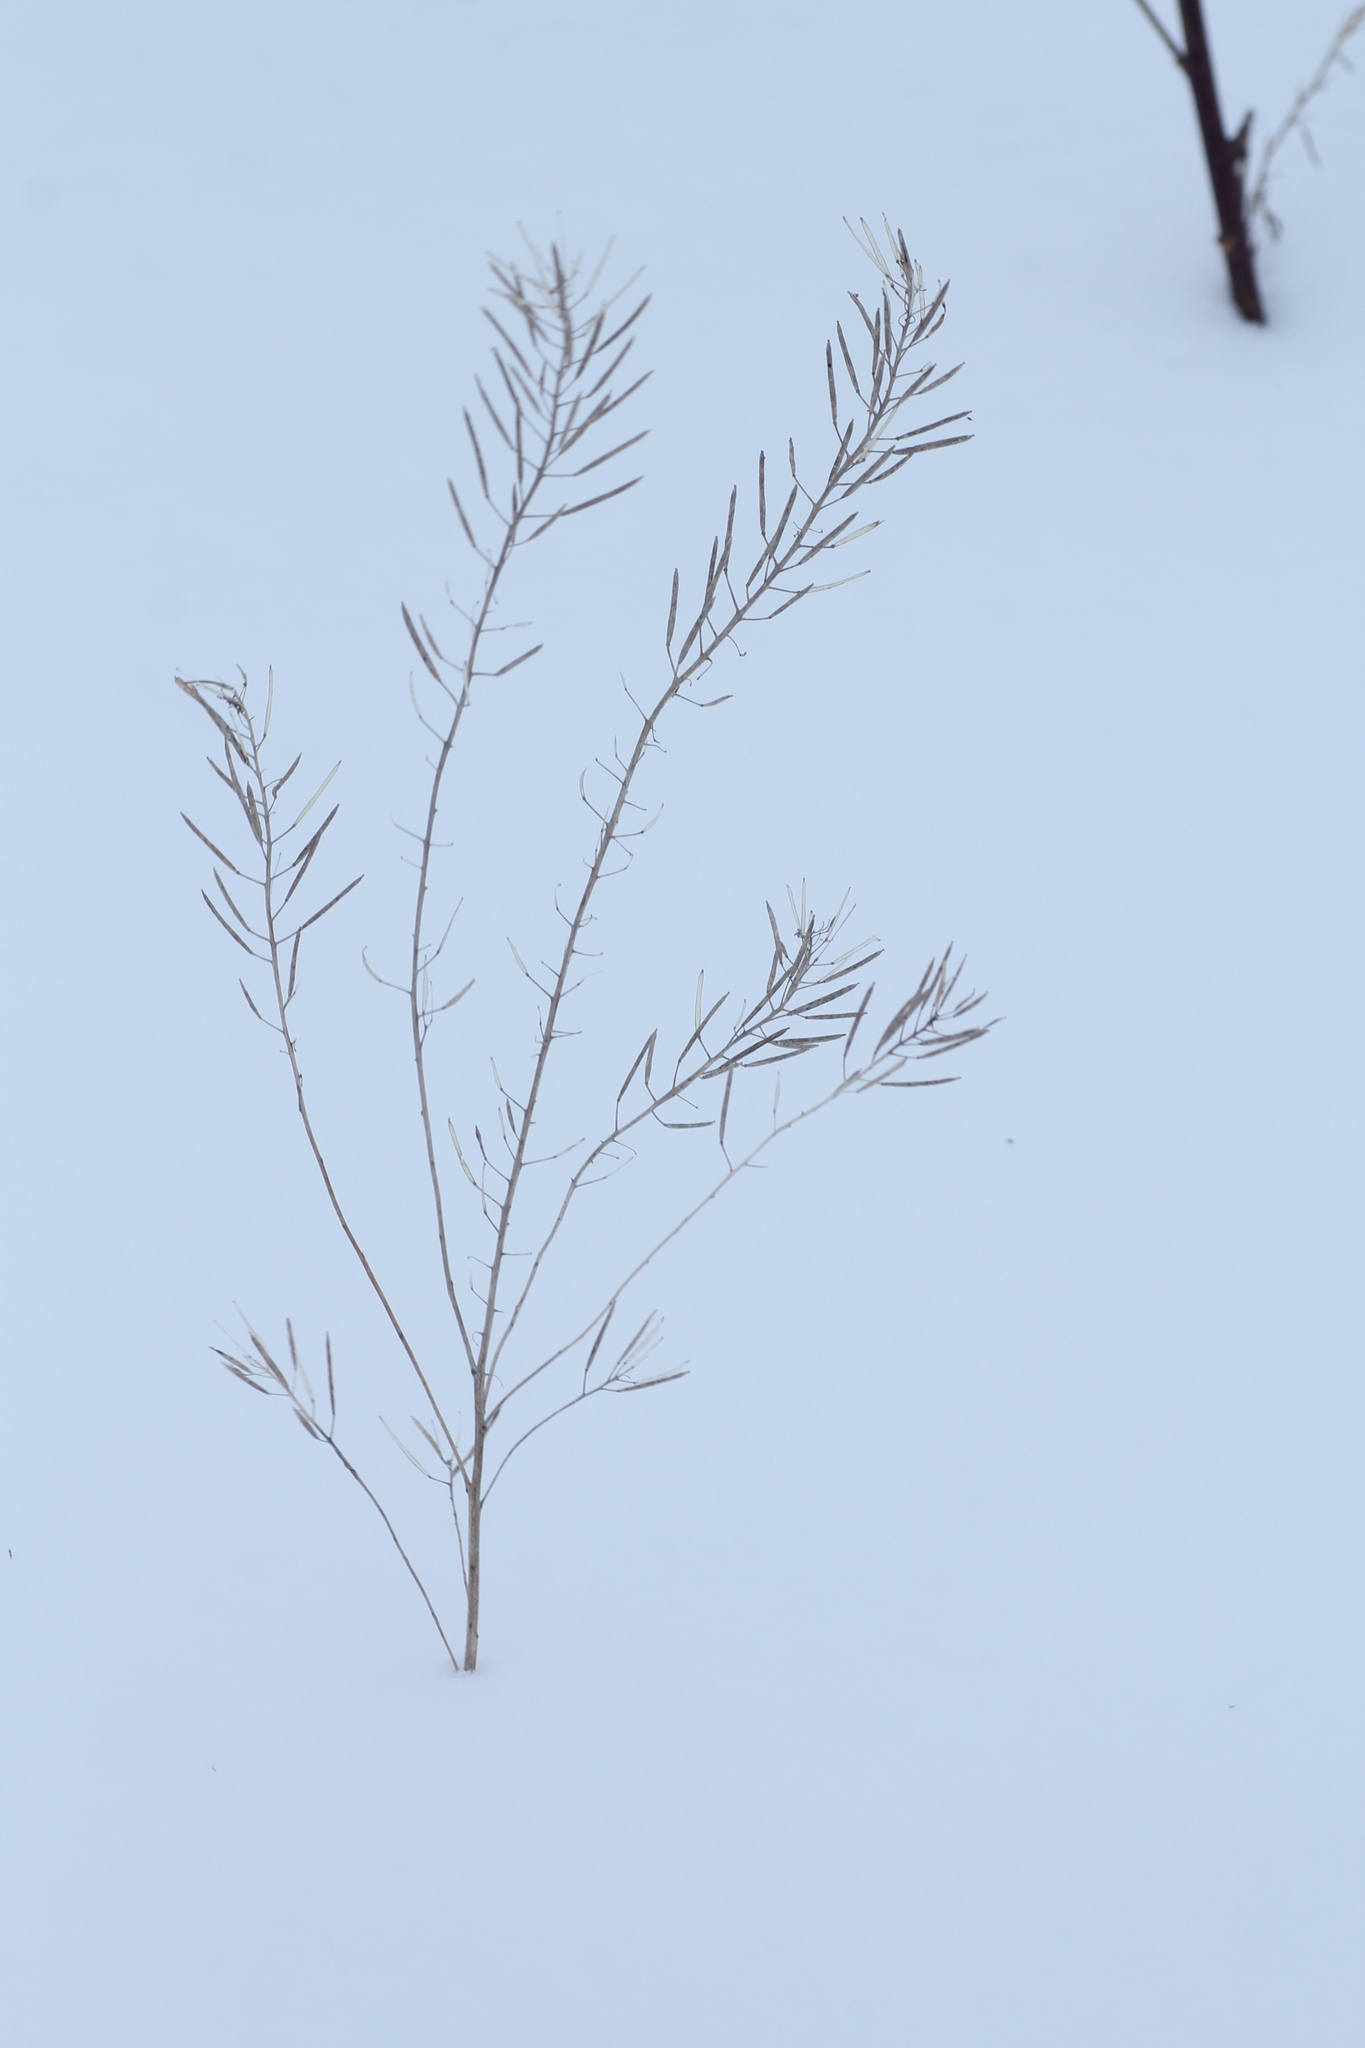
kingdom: Plantae
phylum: Tracheophyta
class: Magnoliopsida
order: Brassicales
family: Brassicaceae
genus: Erysimum
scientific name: Erysimum cheiranthoides
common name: Treacle mustard
